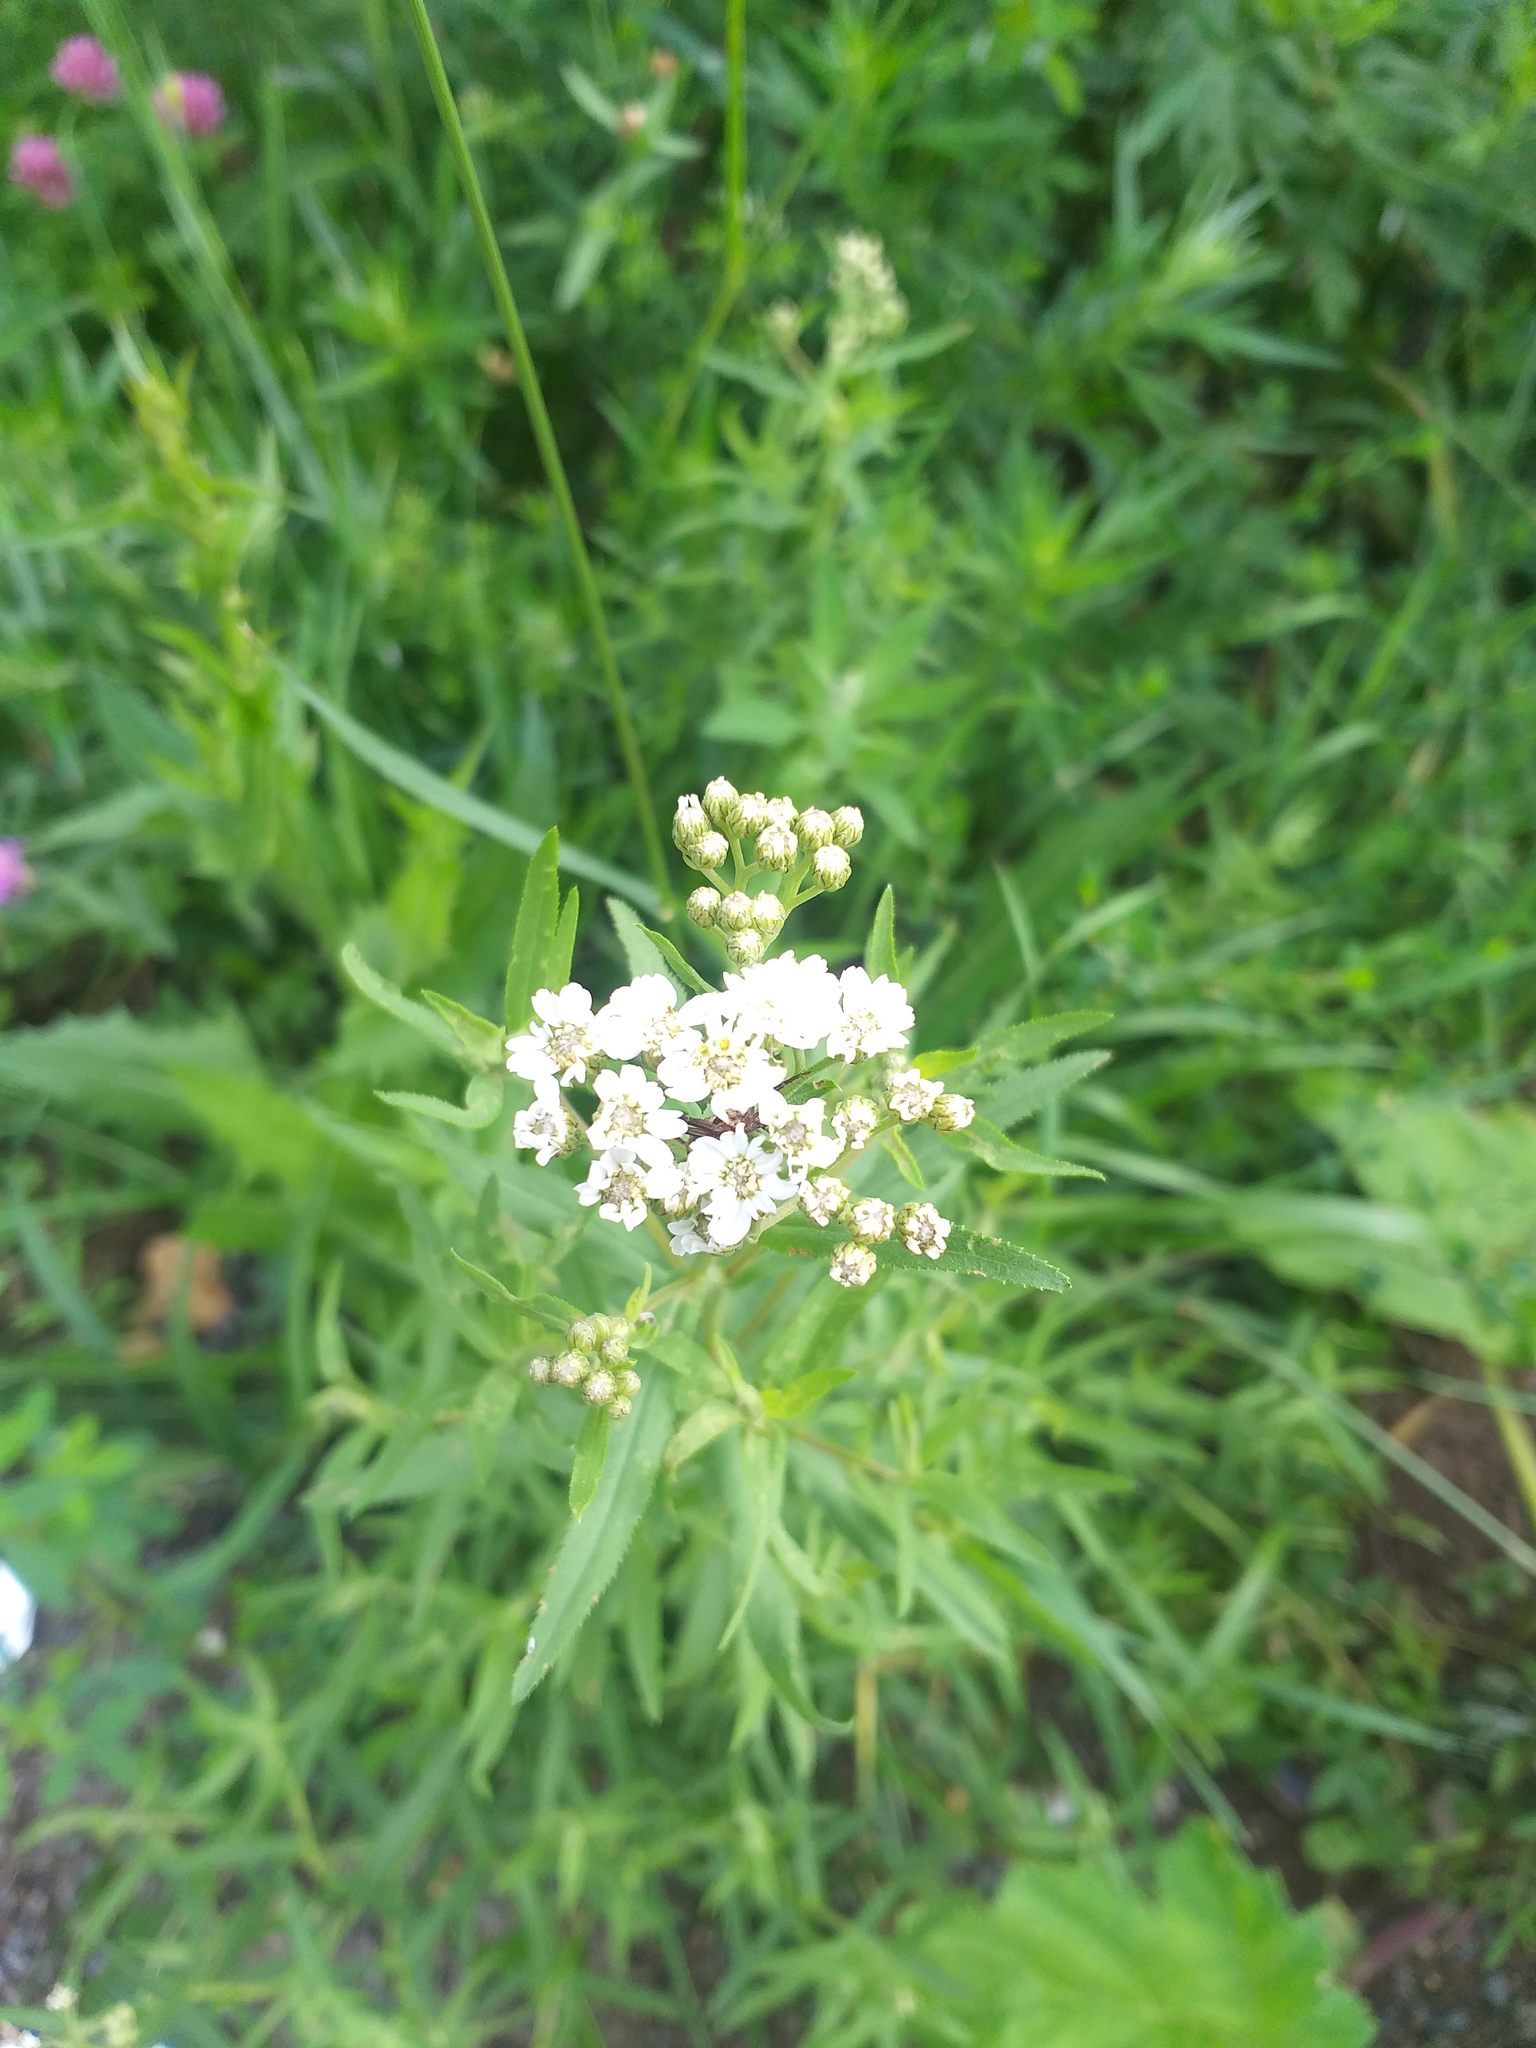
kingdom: Plantae
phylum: Tracheophyta
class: Magnoliopsida
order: Asterales
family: Asteraceae
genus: Achillea
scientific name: Achillea salicifolia
